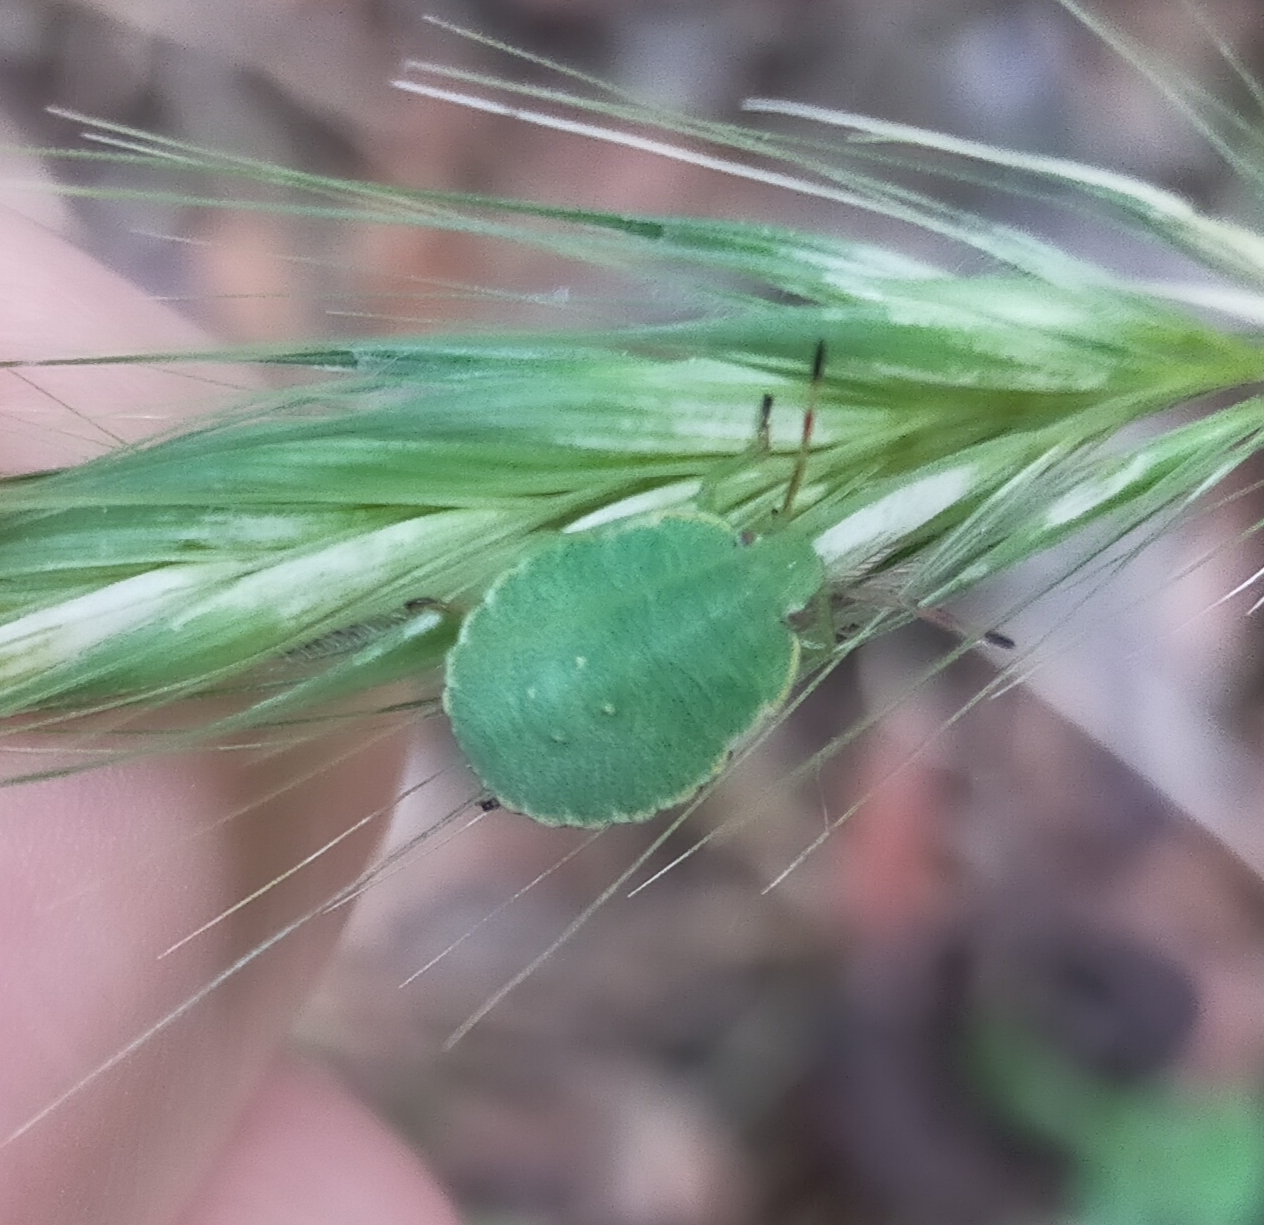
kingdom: Animalia
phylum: Arthropoda
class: Insecta
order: Hemiptera
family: Pentatomidae
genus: Palomena
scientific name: Palomena prasina
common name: Green shieldbug
